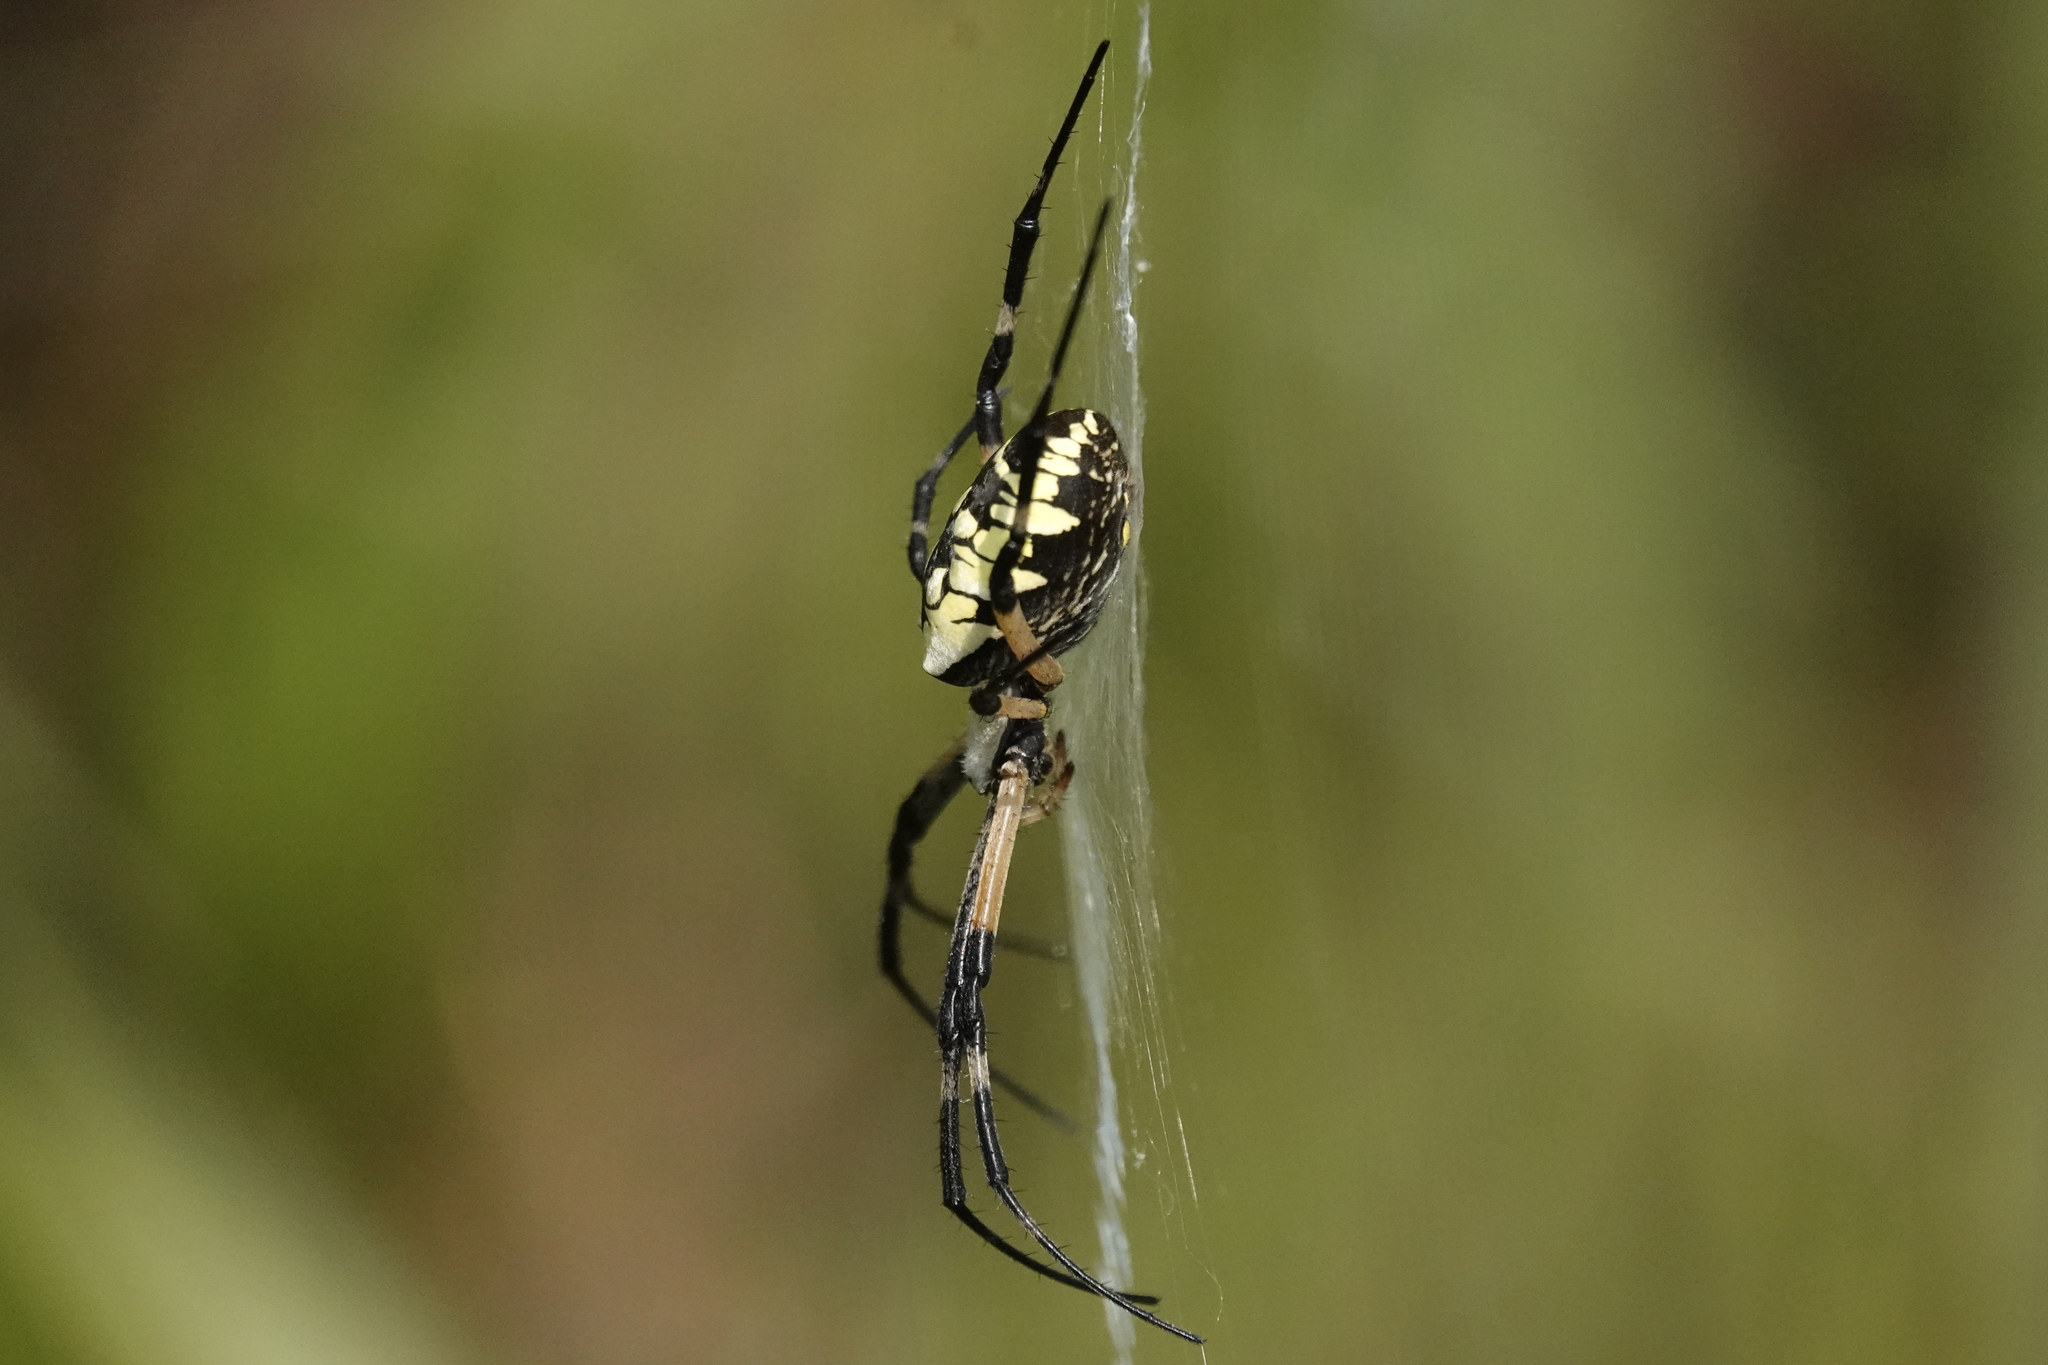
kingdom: Animalia
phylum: Arthropoda
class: Arachnida
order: Araneae
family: Araneidae
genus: Argiope
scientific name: Argiope aurantia
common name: Orb weavers
